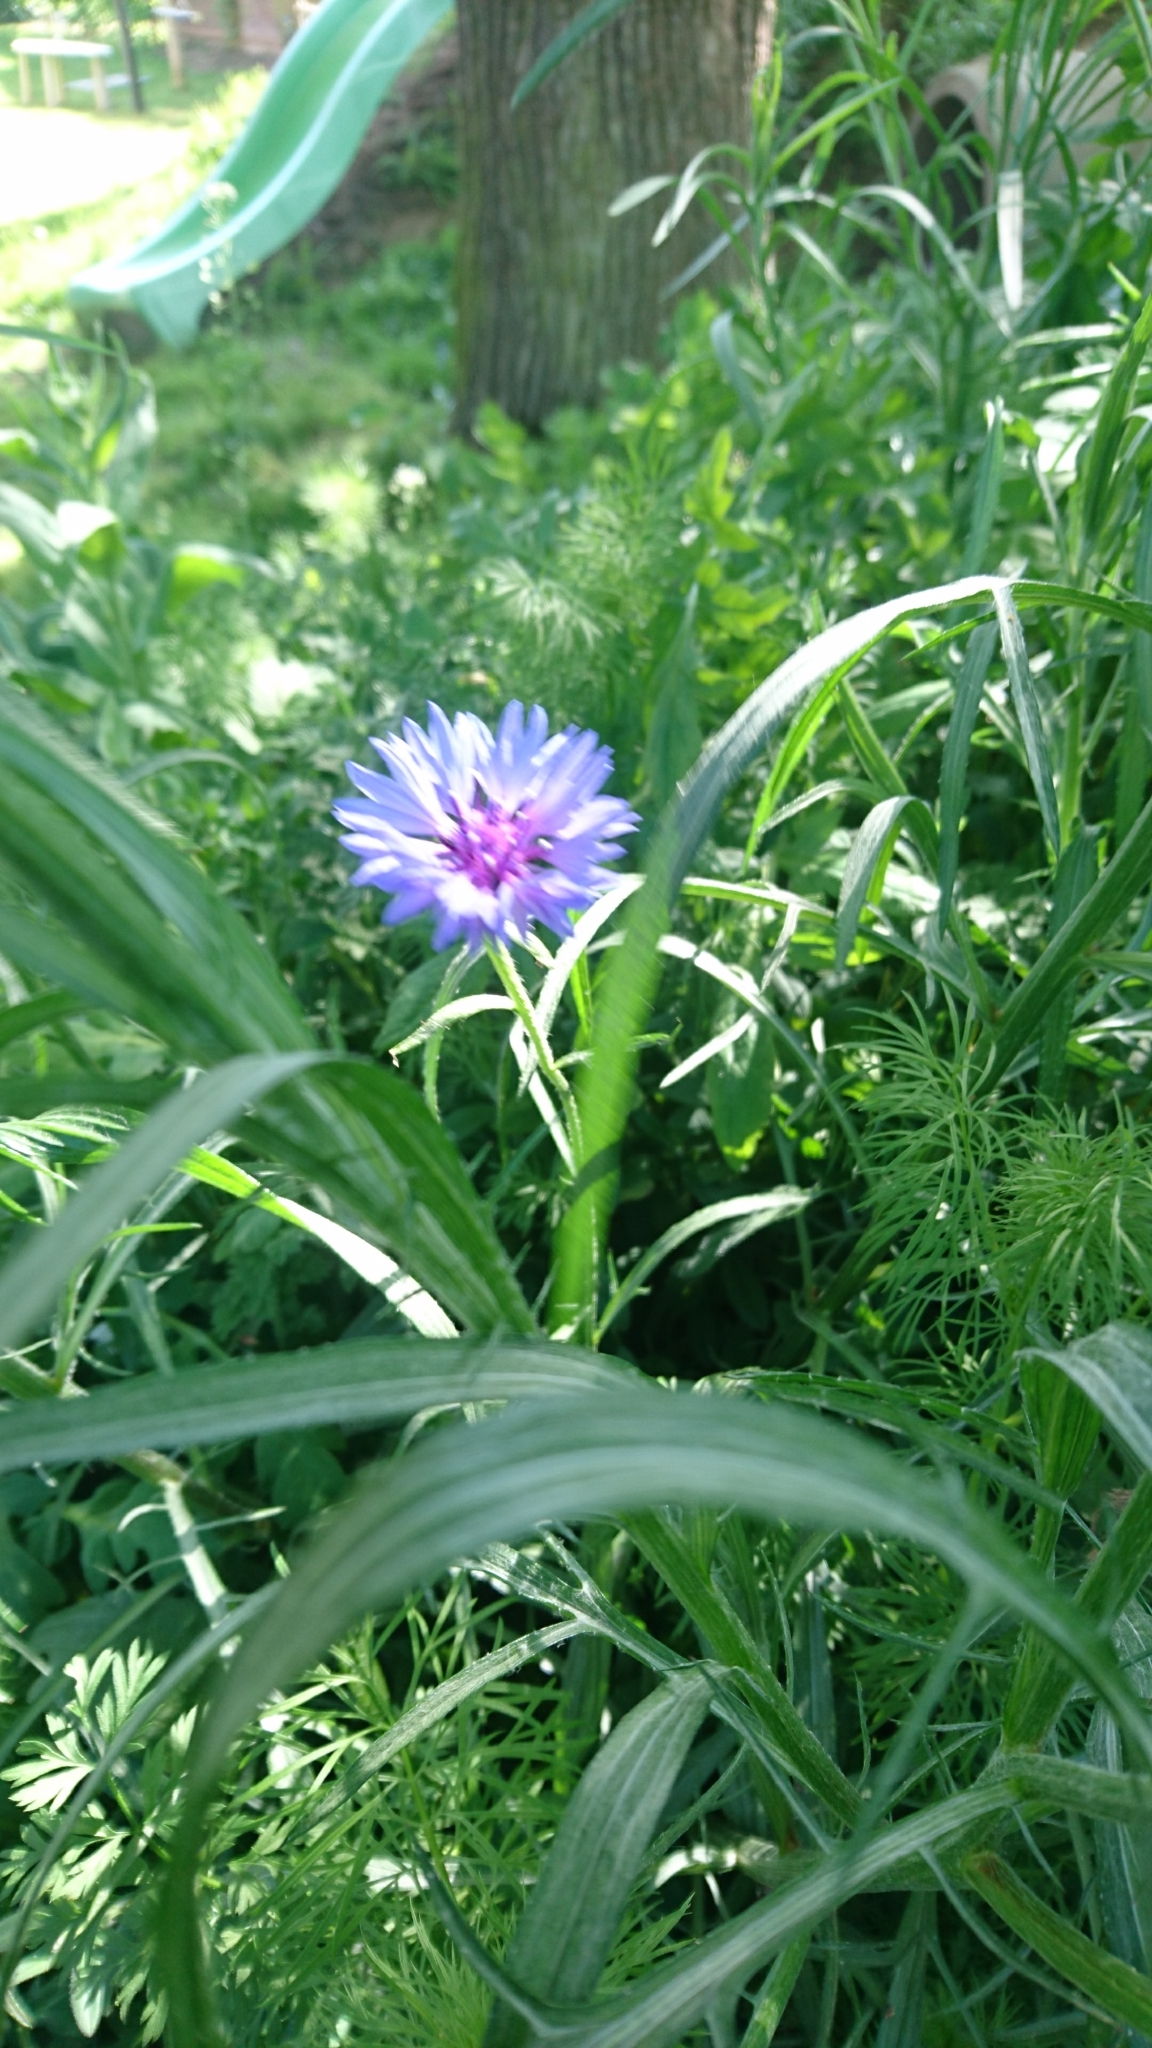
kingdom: Plantae
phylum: Tracheophyta
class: Magnoliopsida
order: Asterales
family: Asteraceae
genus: Centaurea
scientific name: Centaurea cyanus
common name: Cornflower
